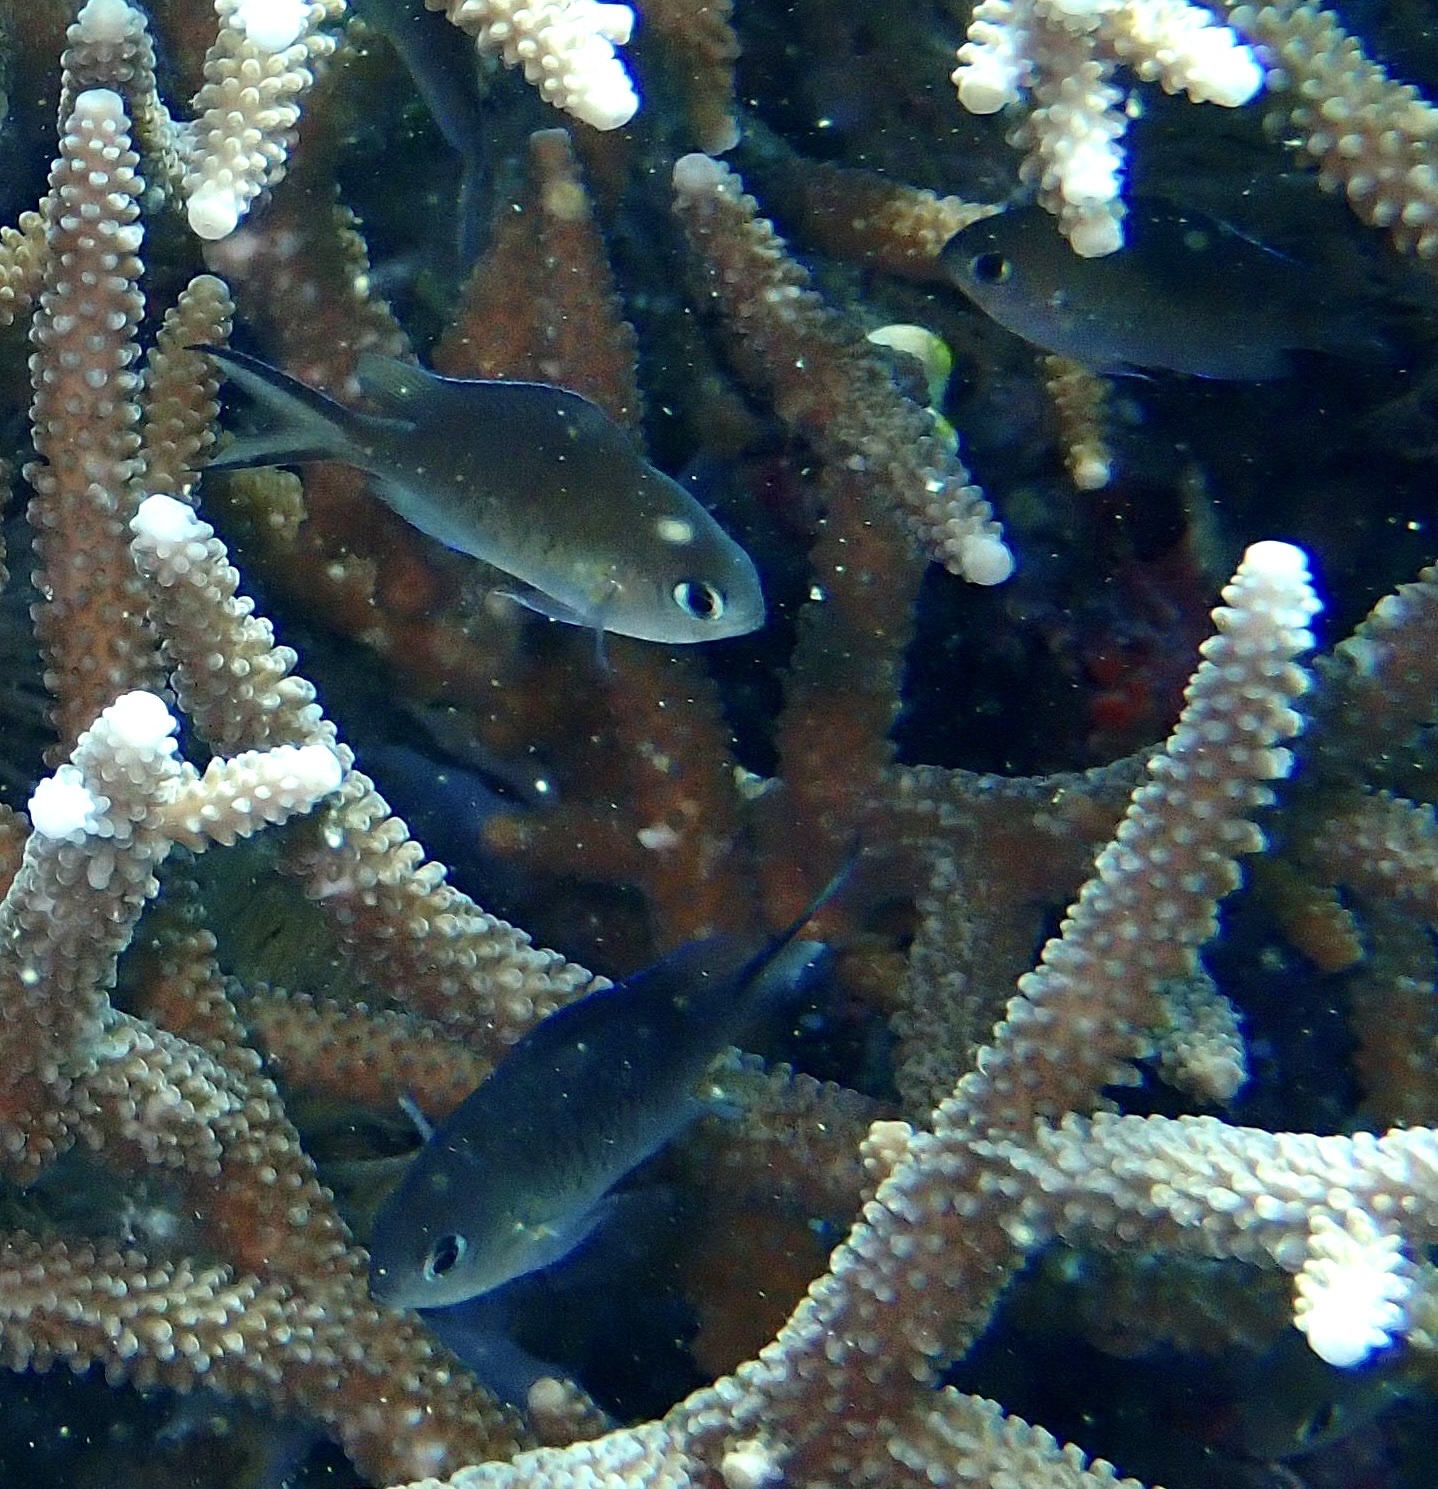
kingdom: Animalia
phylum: Chordata
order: Perciformes
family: Pomacentridae
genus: Chromis
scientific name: Chromis ternatensis
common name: Ternate chromis
